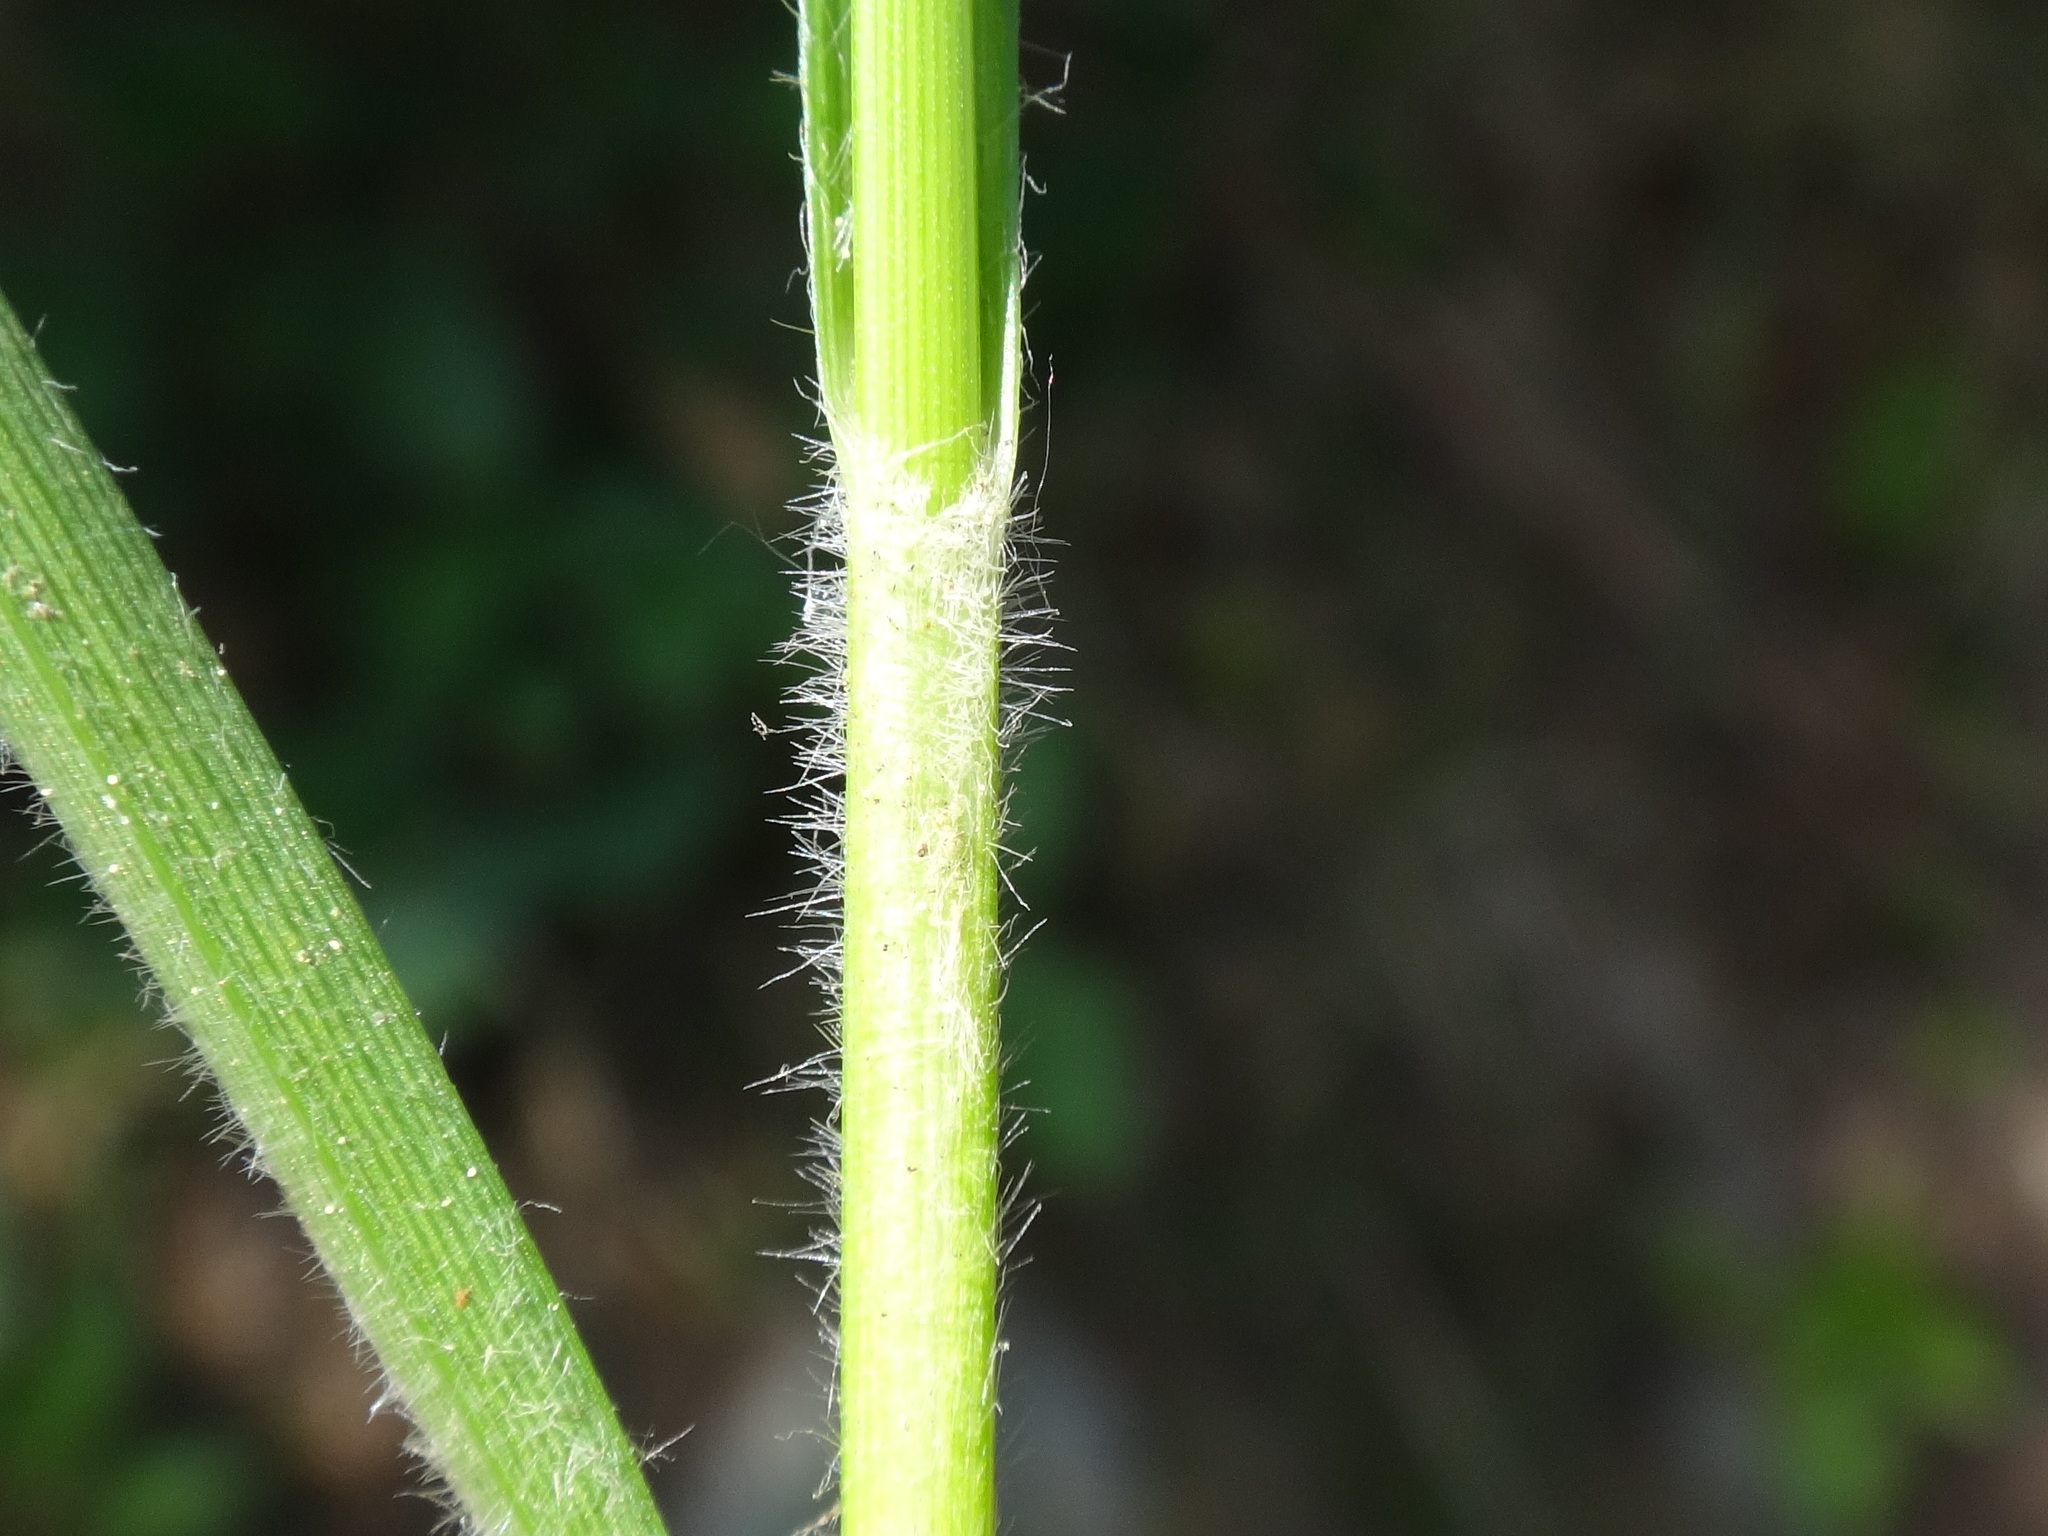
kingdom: Plantae
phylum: Tracheophyta
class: Liliopsida
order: Poales
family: Cyperaceae
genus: Carex
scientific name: Carex hirta
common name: Hairy sedge
